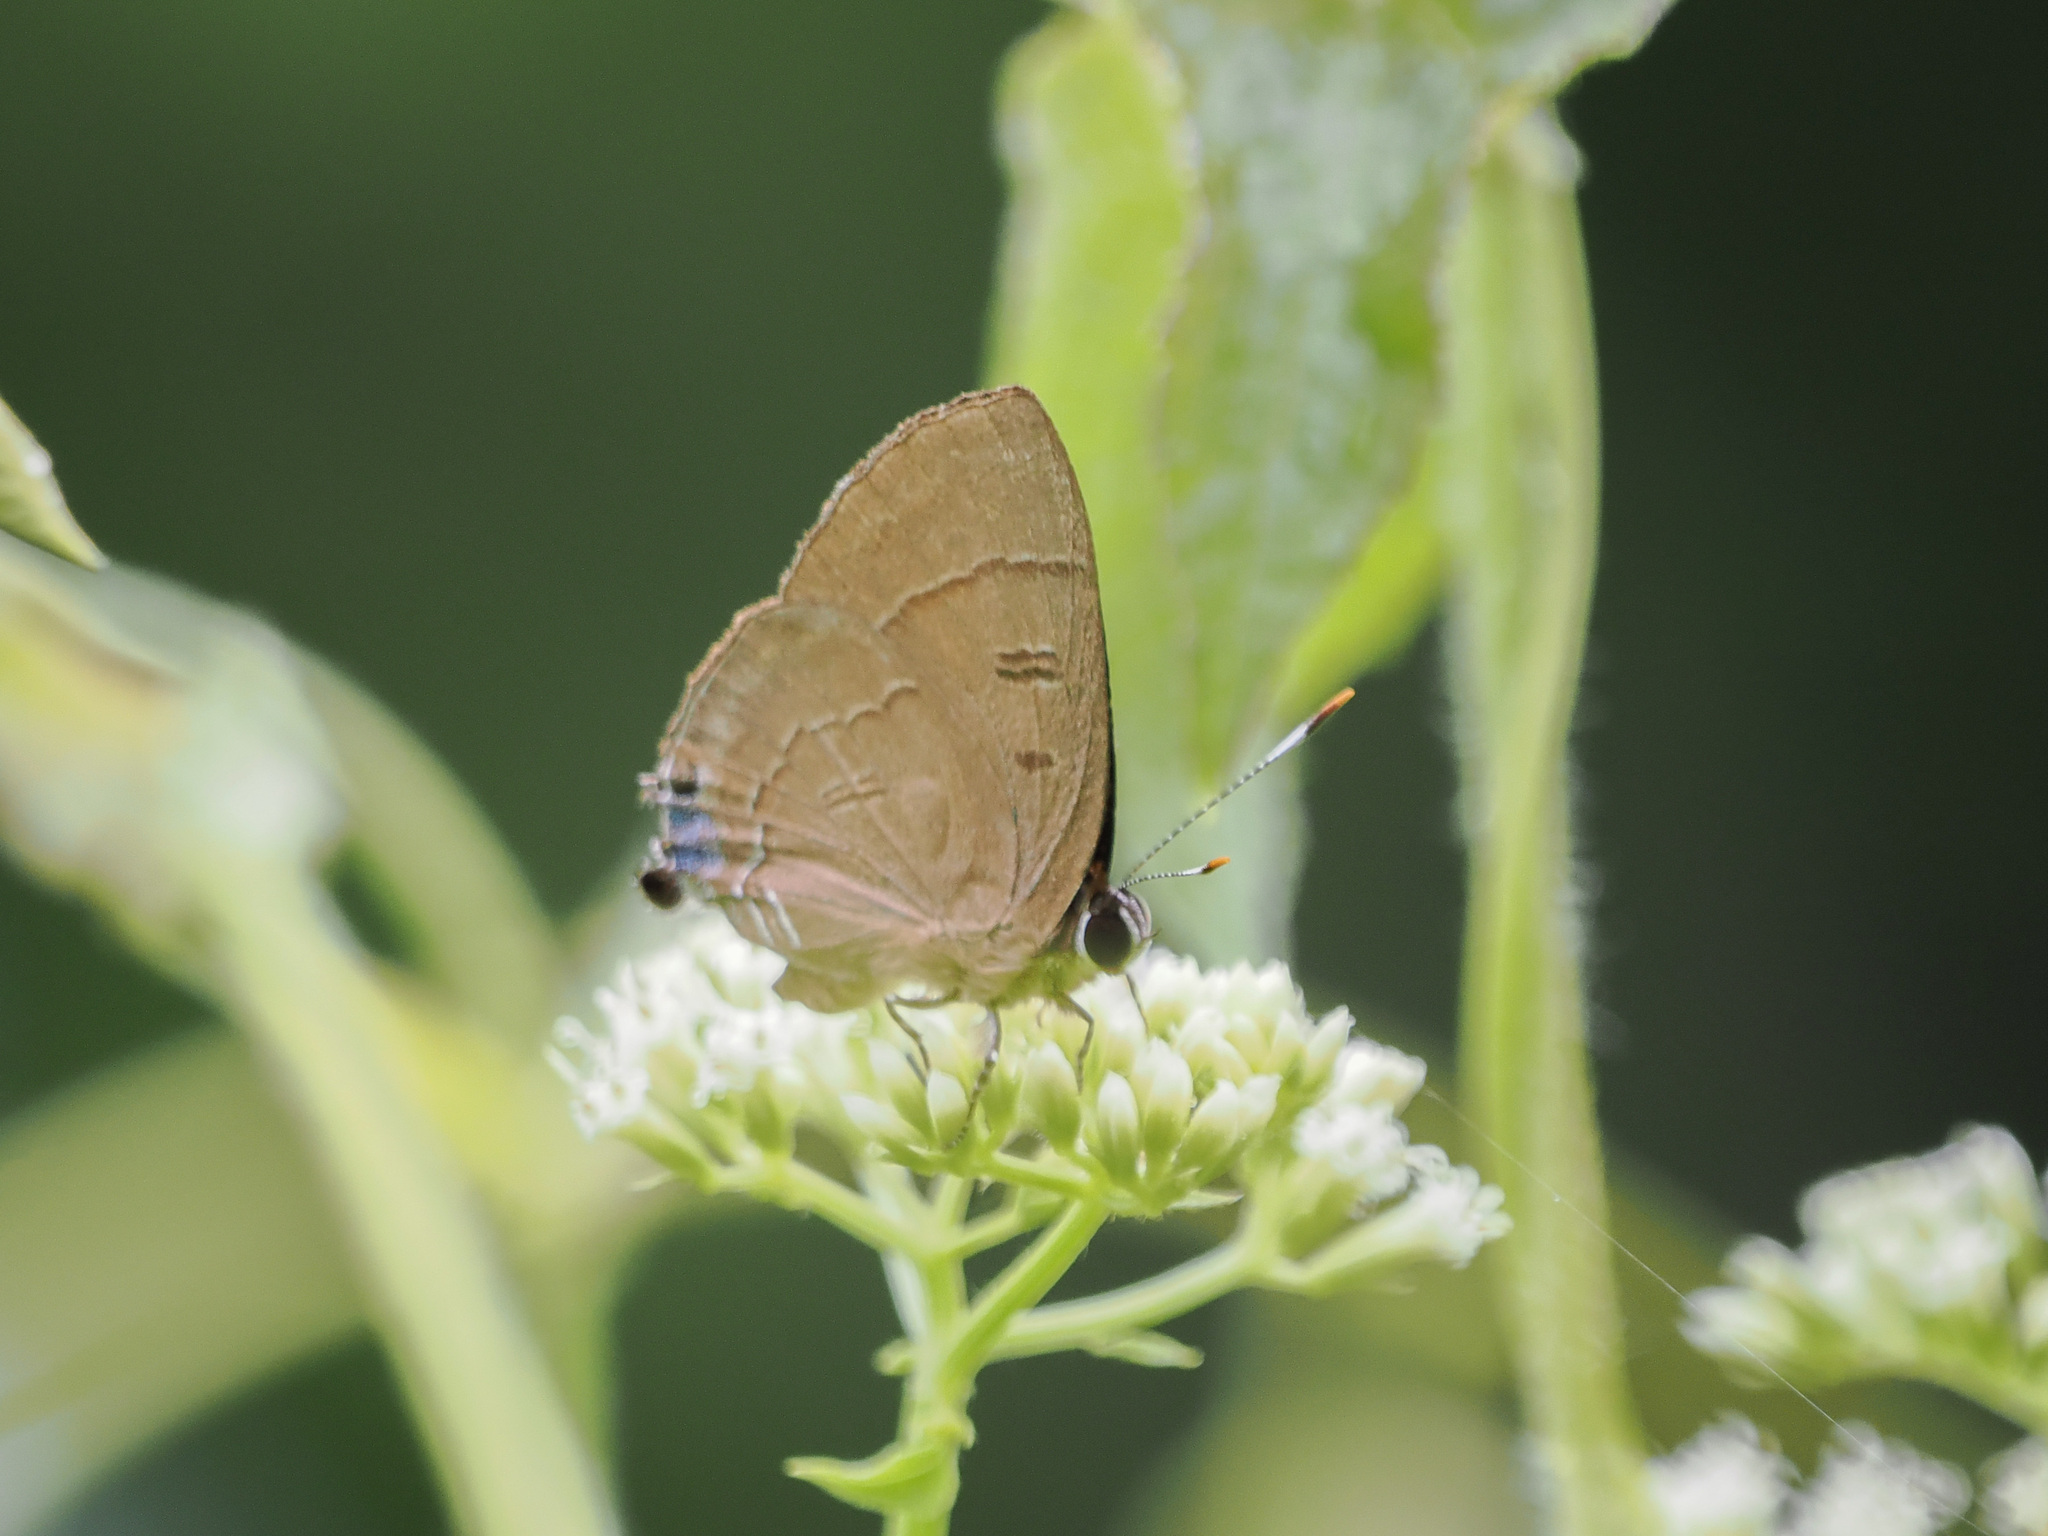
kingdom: Animalia
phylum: Arthropoda
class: Insecta
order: Lepidoptera
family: Lycaenidae
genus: Rapala
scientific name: Rapala pheretima
